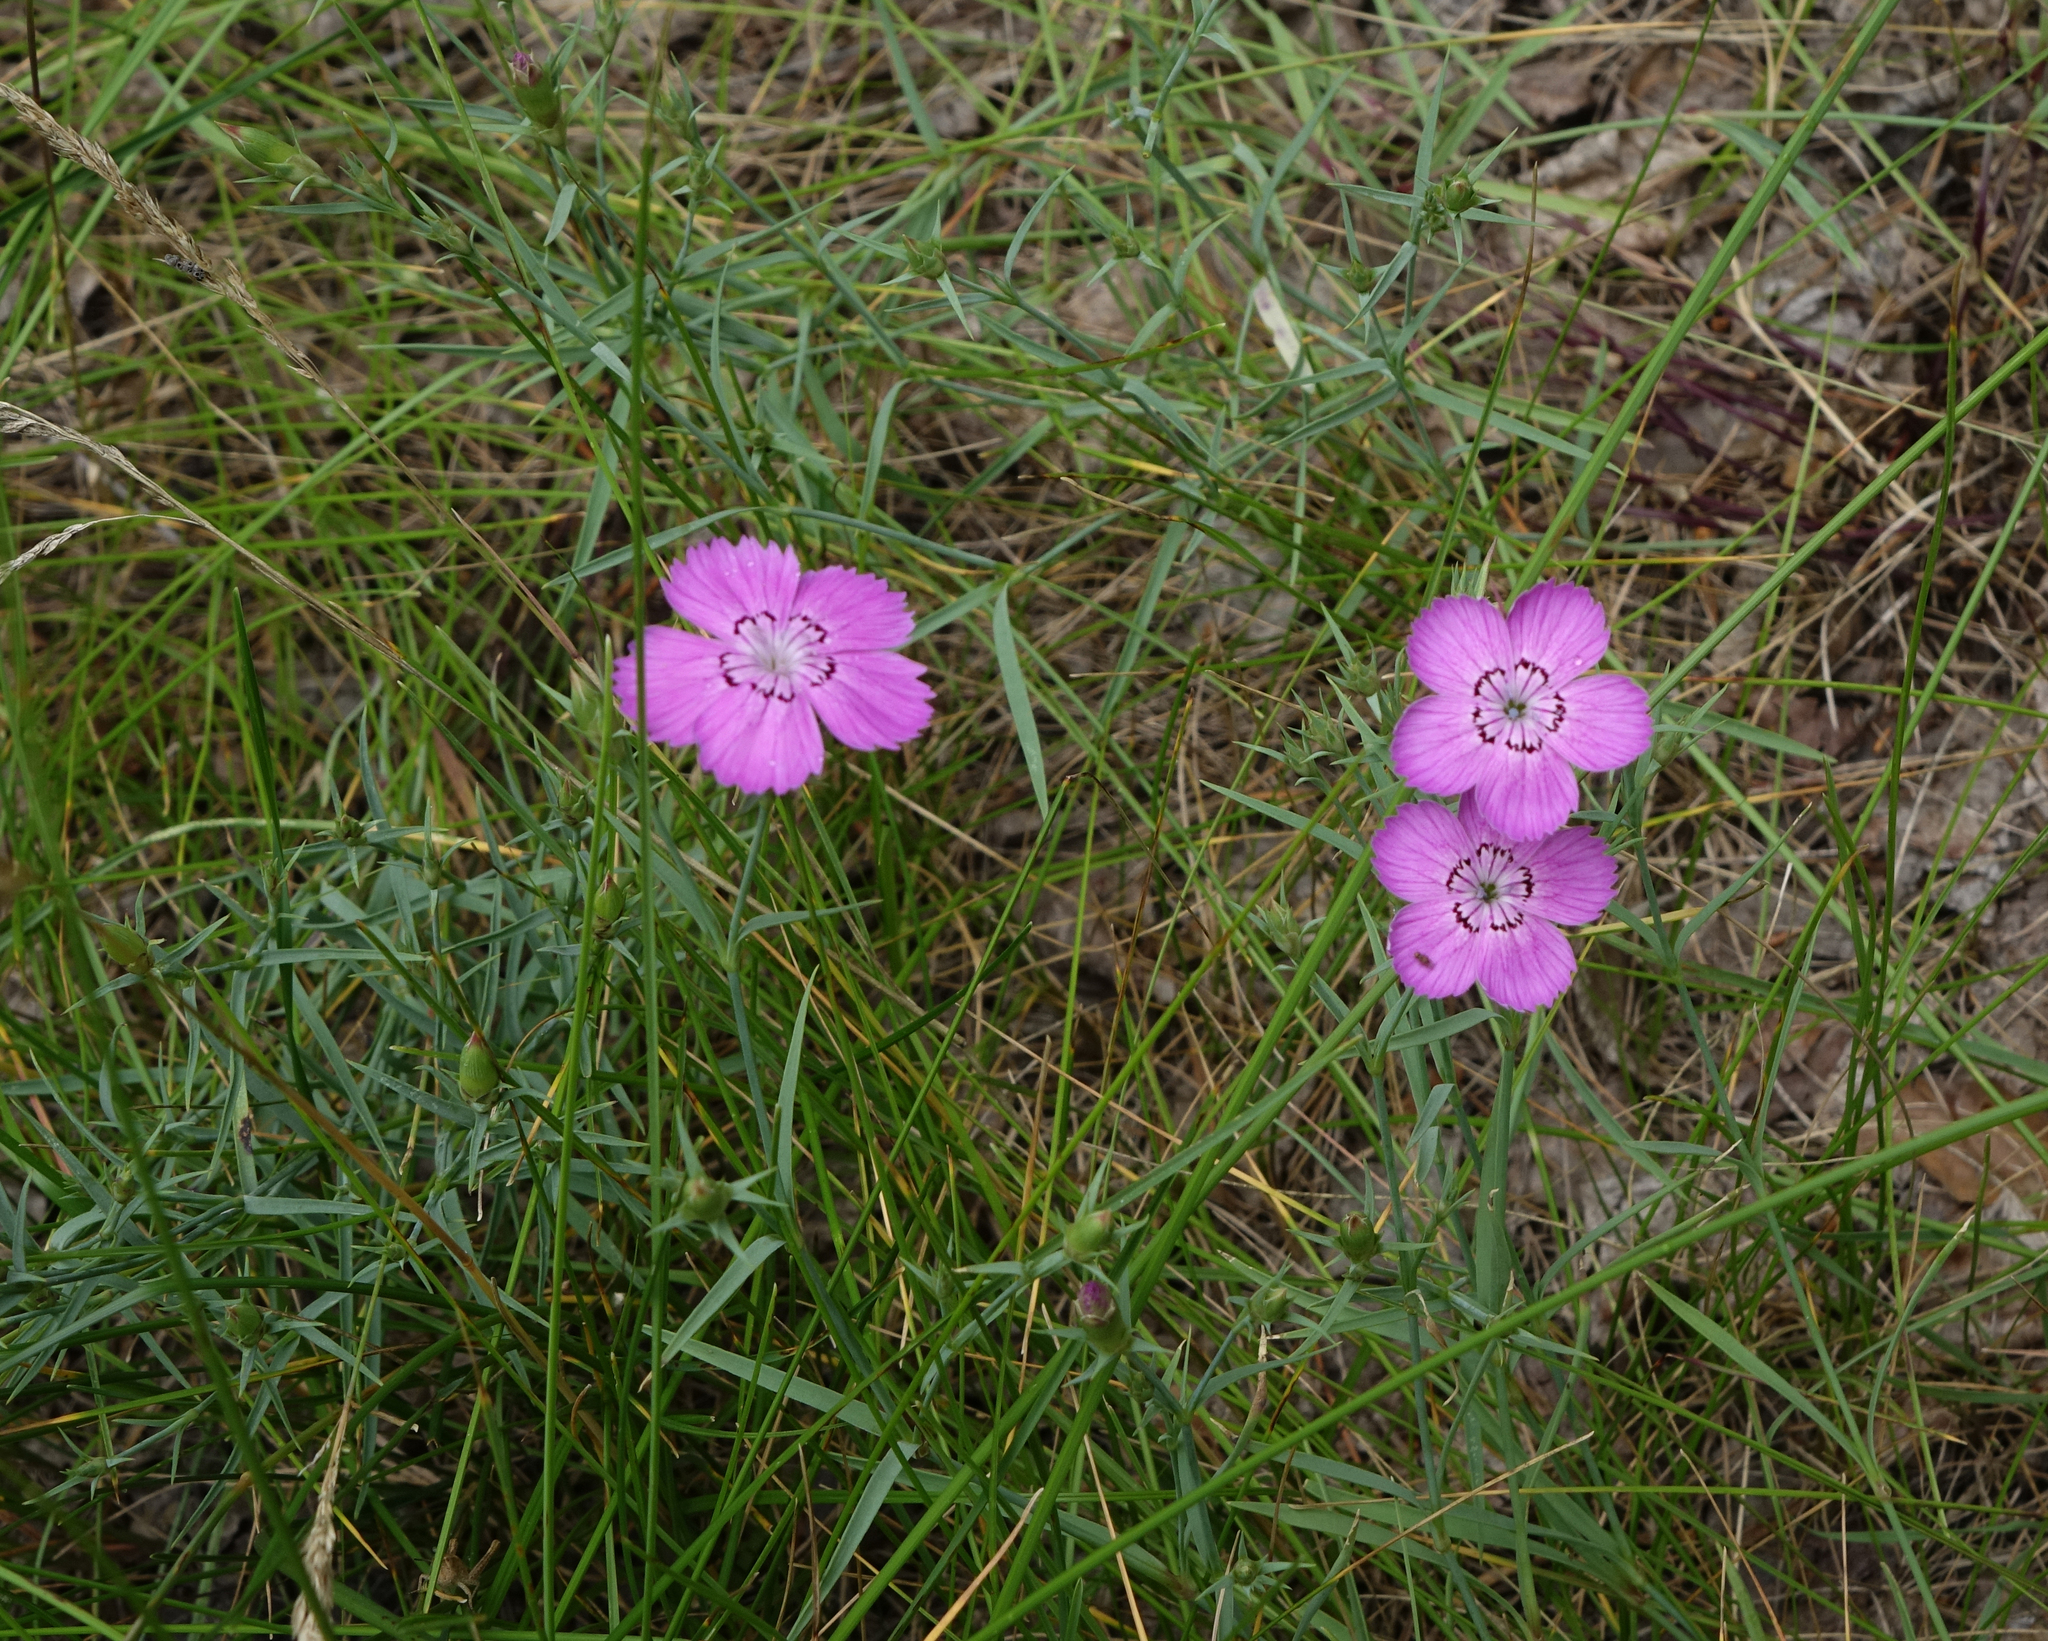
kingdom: Plantae
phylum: Tracheophyta
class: Magnoliopsida
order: Caryophyllales
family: Caryophyllaceae
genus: Dianthus
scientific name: Dianthus chinensis
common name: Rainbow pink
